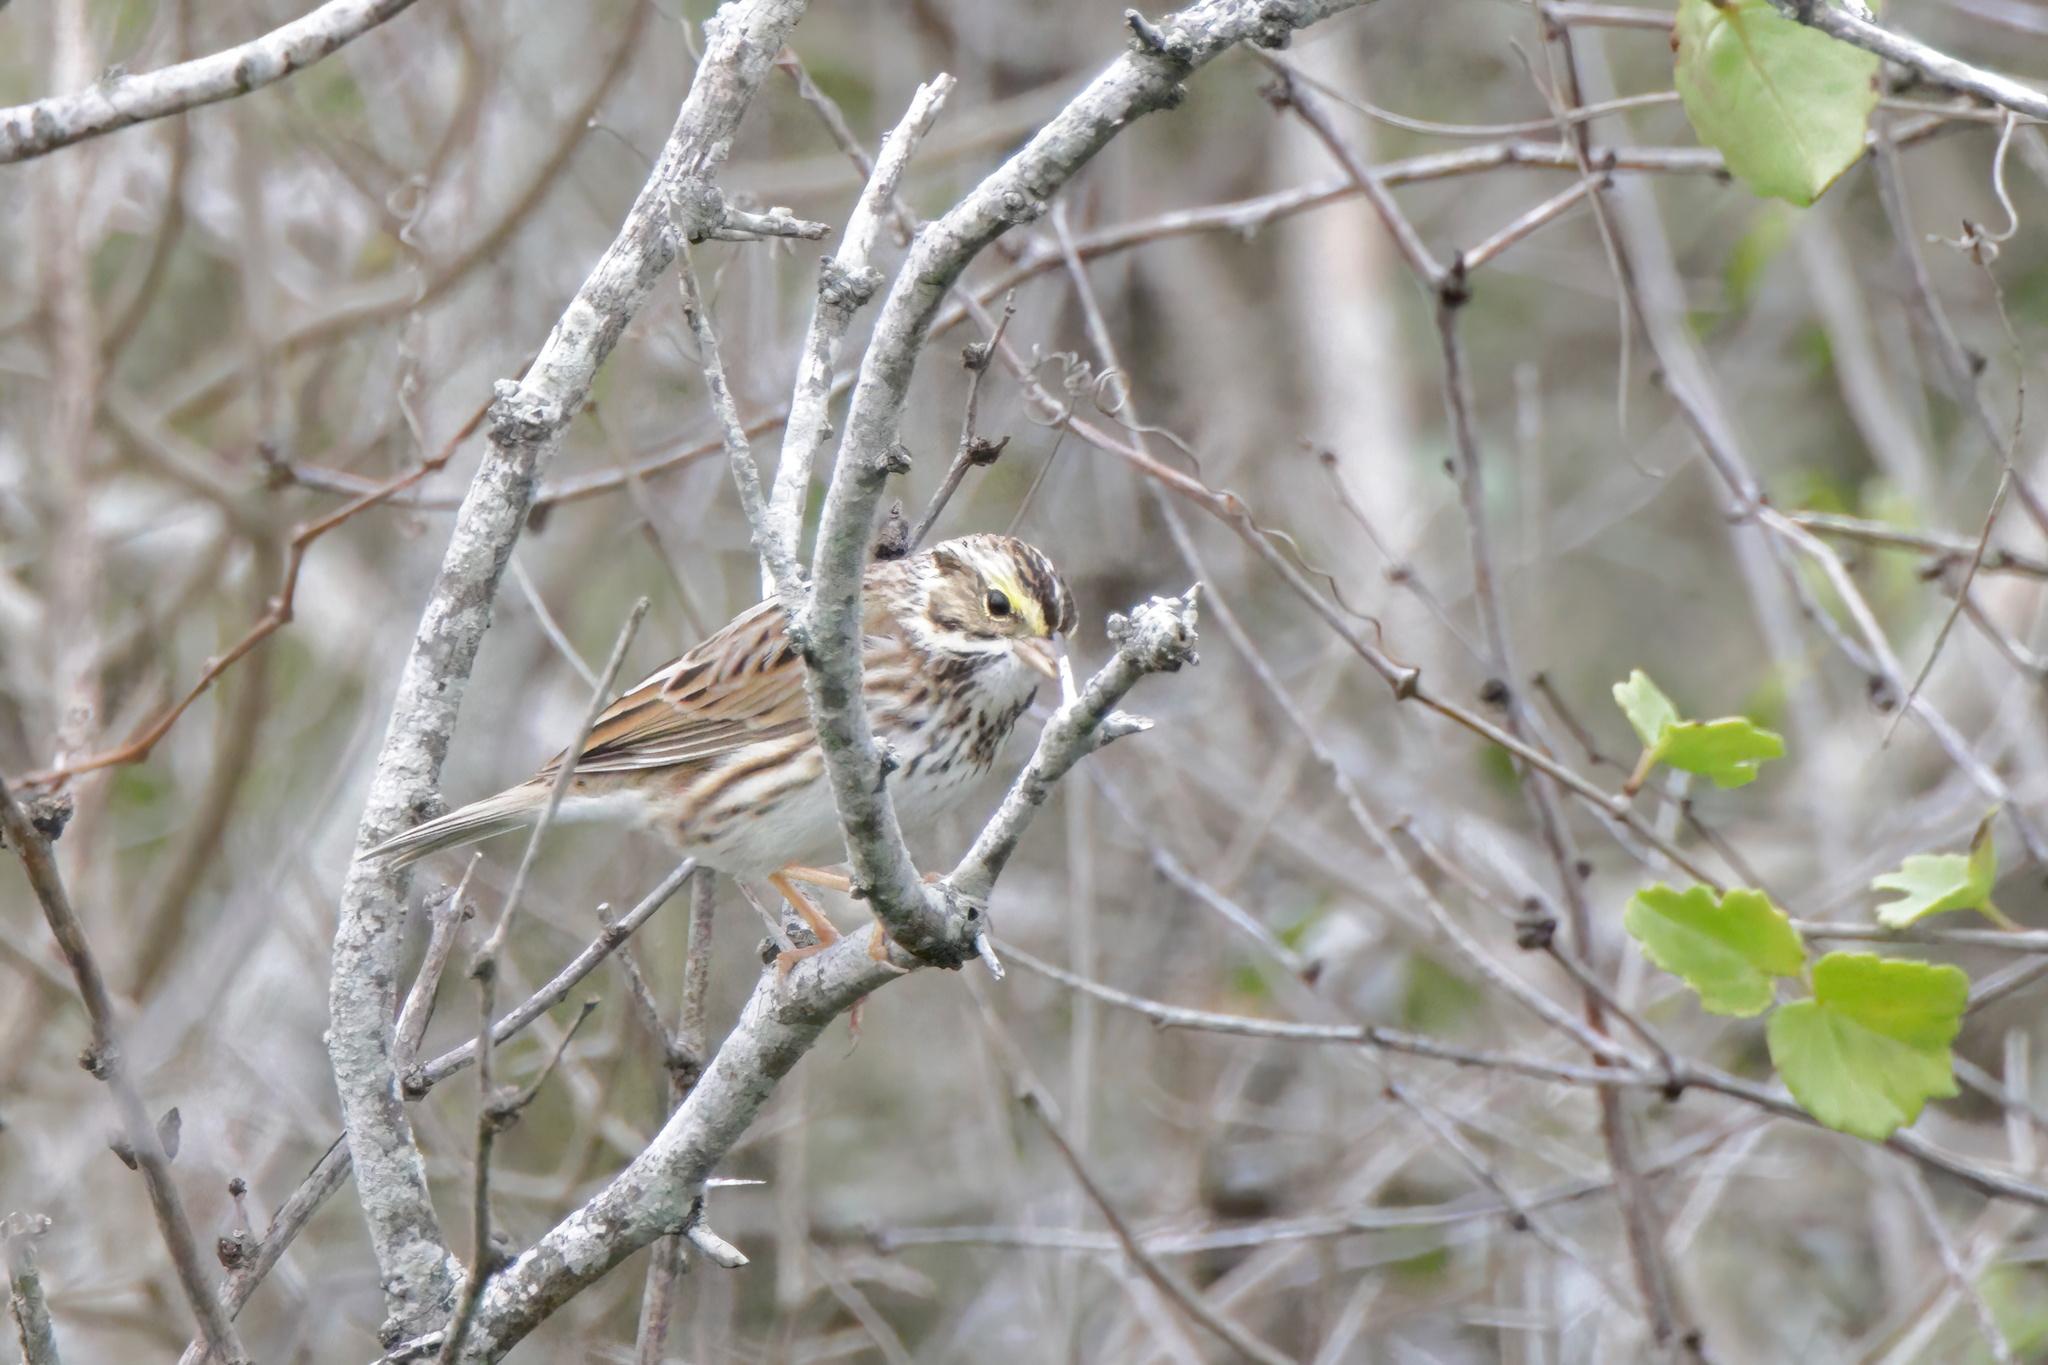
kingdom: Animalia
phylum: Chordata
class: Aves
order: Passeriformes
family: Passerellidae
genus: Passerculus
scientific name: Passerculus sandwichensis
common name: Savannah sparrow
